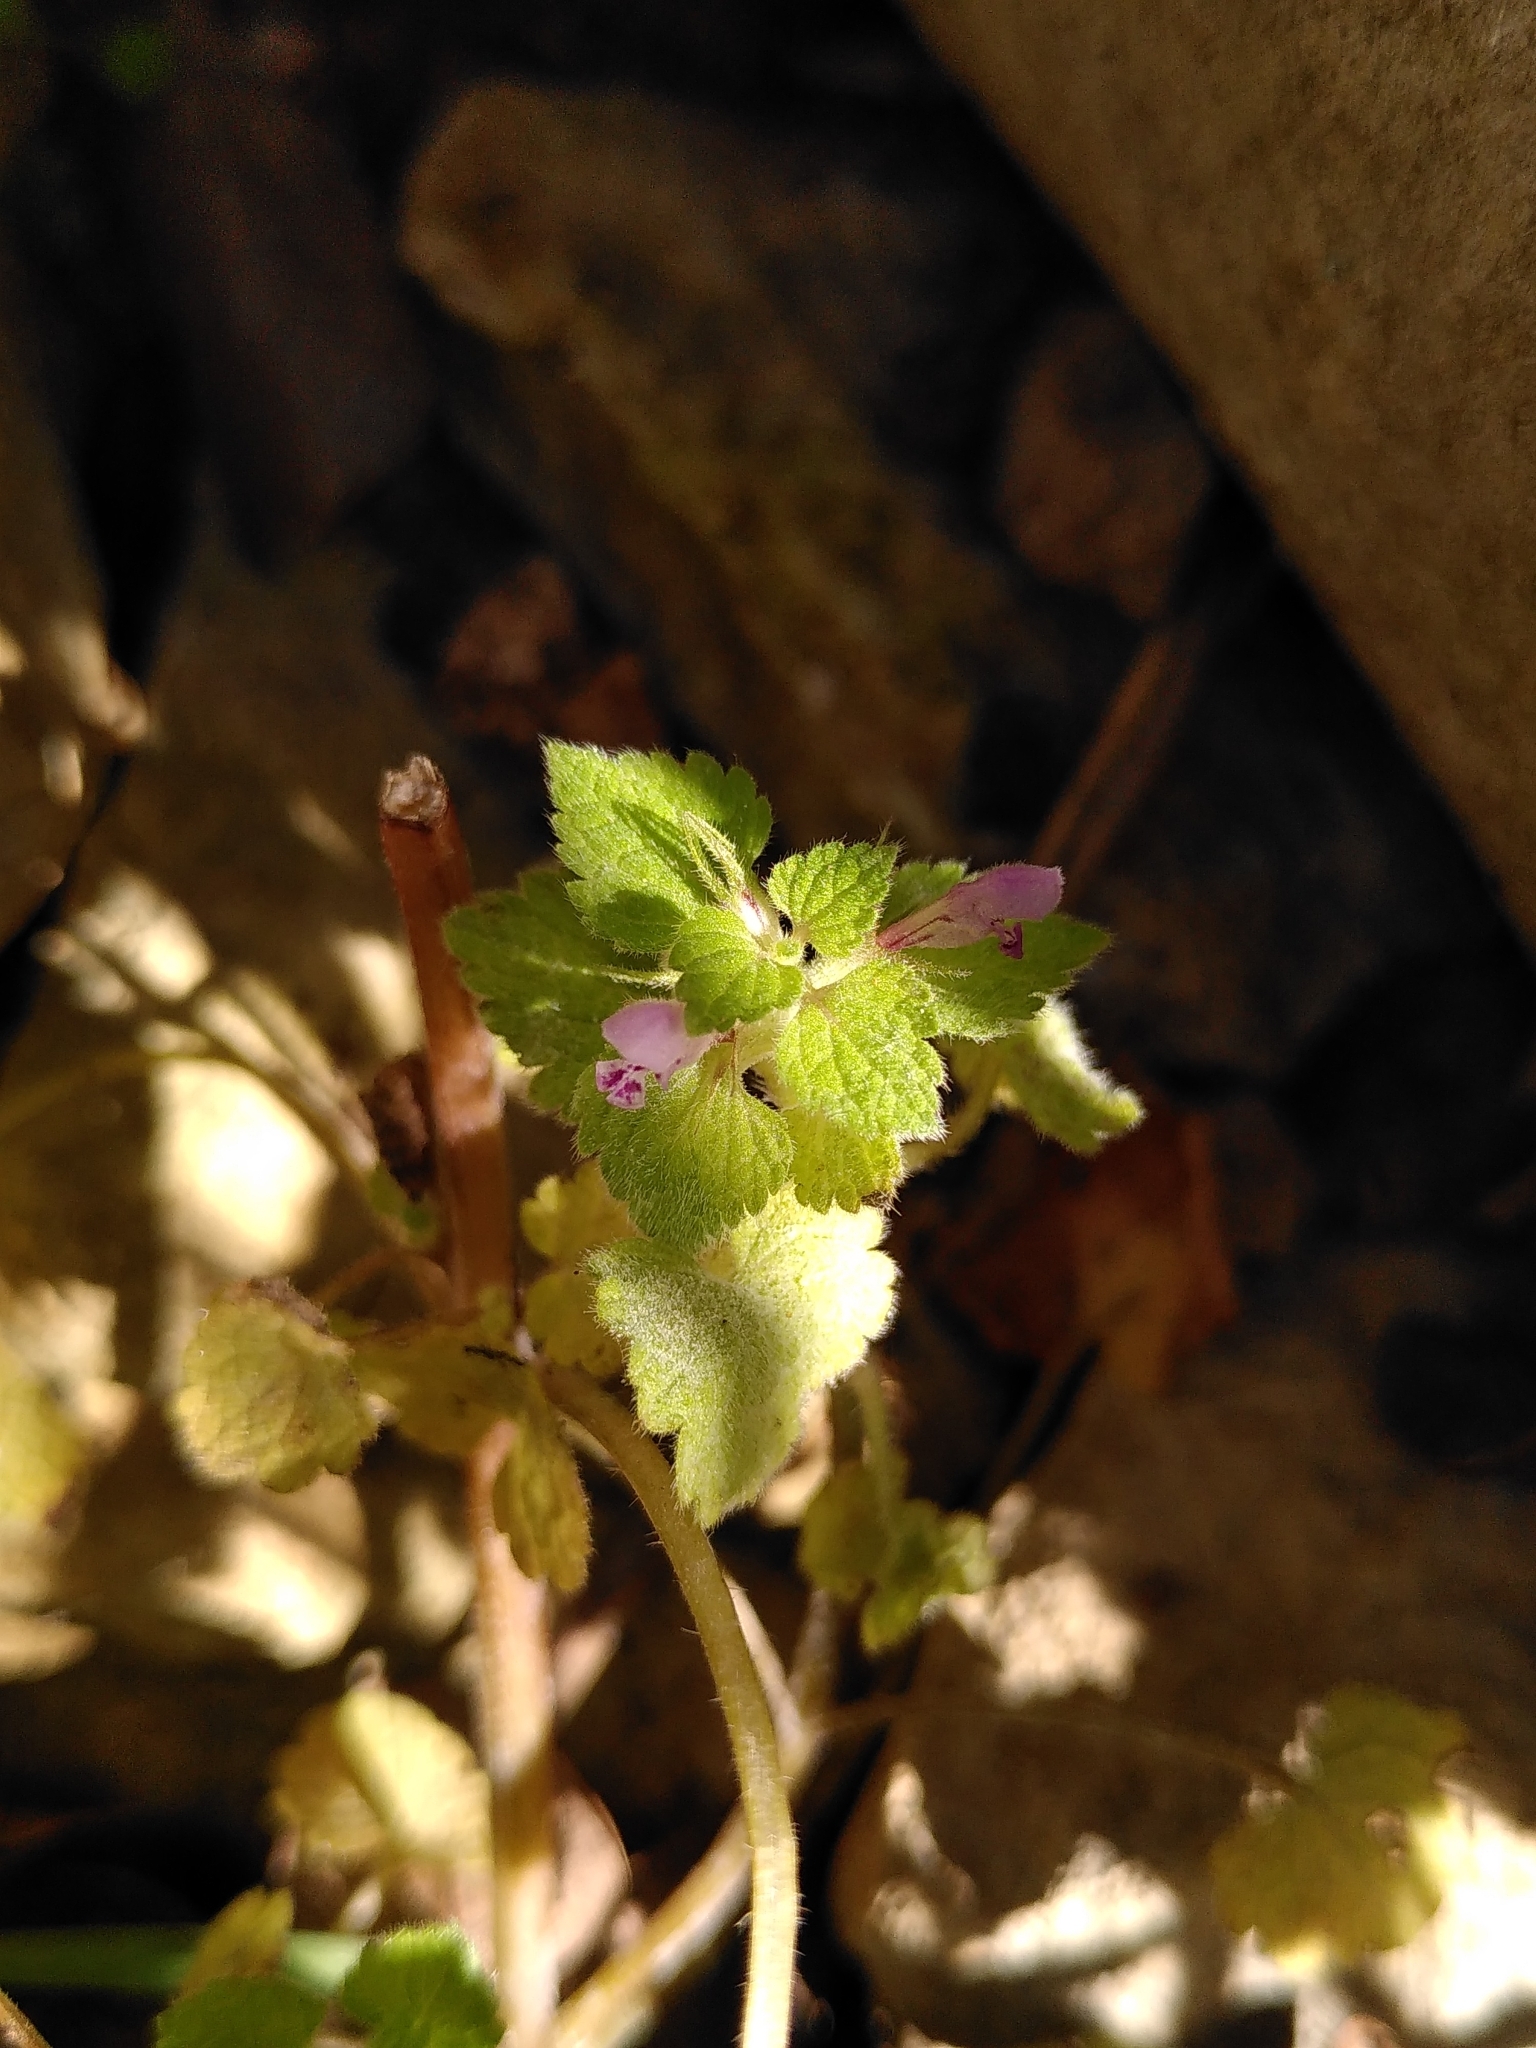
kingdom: Plantae
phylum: Tracheophyta
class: Magnoliopsida
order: Lamiales
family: Lamiaceae
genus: Lamium
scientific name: Lamium purpureum
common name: Red dead-nettle
